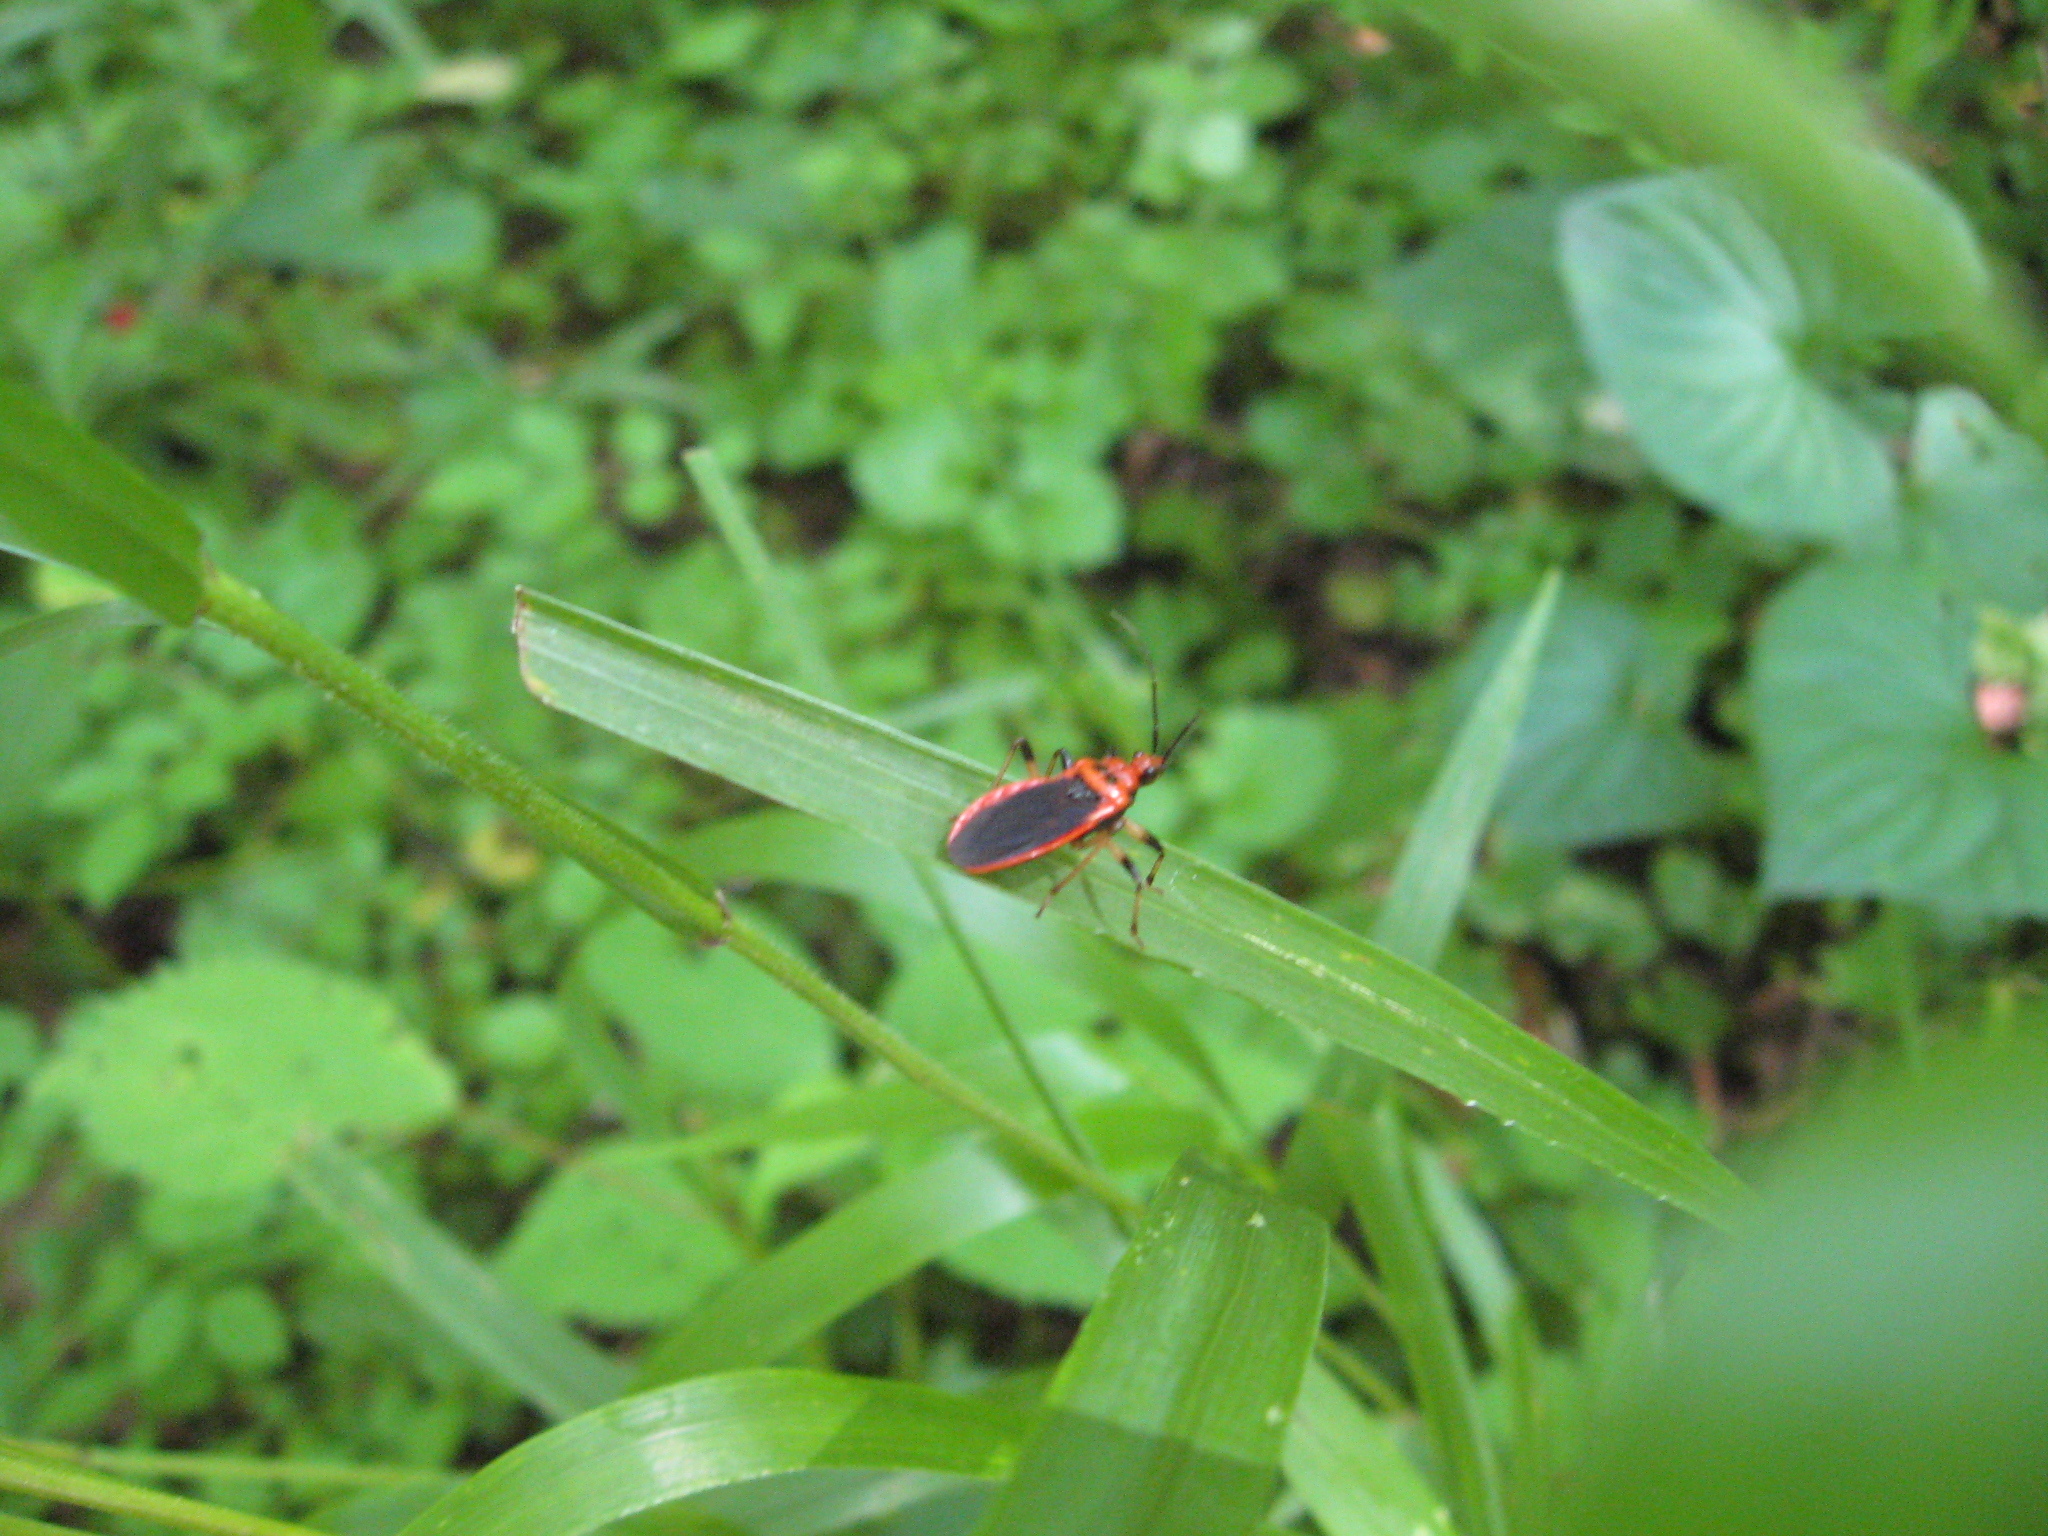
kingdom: Animalia
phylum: Arthropoda
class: Insecta
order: Hemiptera
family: Reduviidae
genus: Rhiginia
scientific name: Rhiginia cruciata
